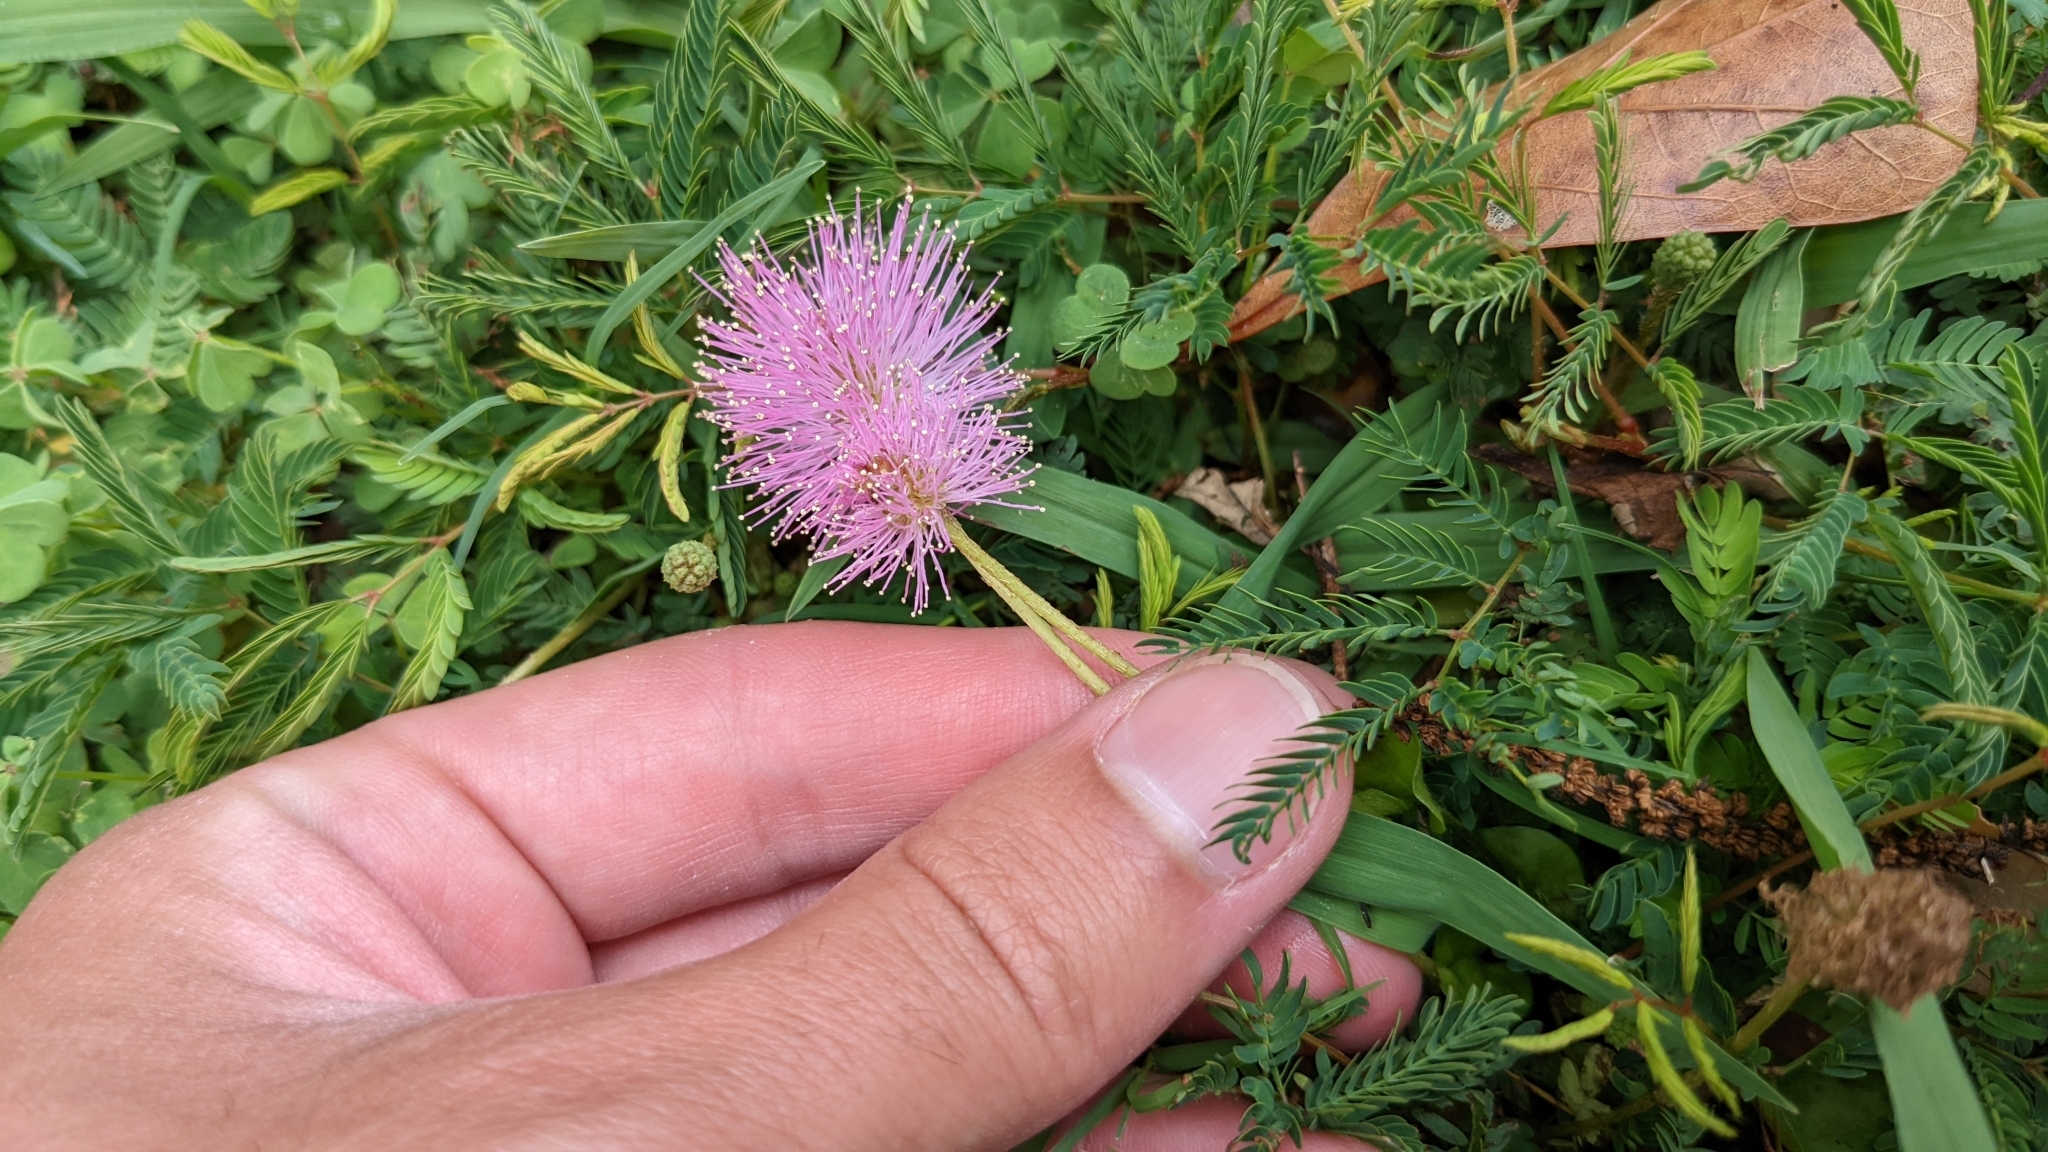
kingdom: Plantae
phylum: Tracheophyta
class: Magnoliopsida
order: Fabales
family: Fabaceae
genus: Mimosa
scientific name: Mimosa strigillosa
